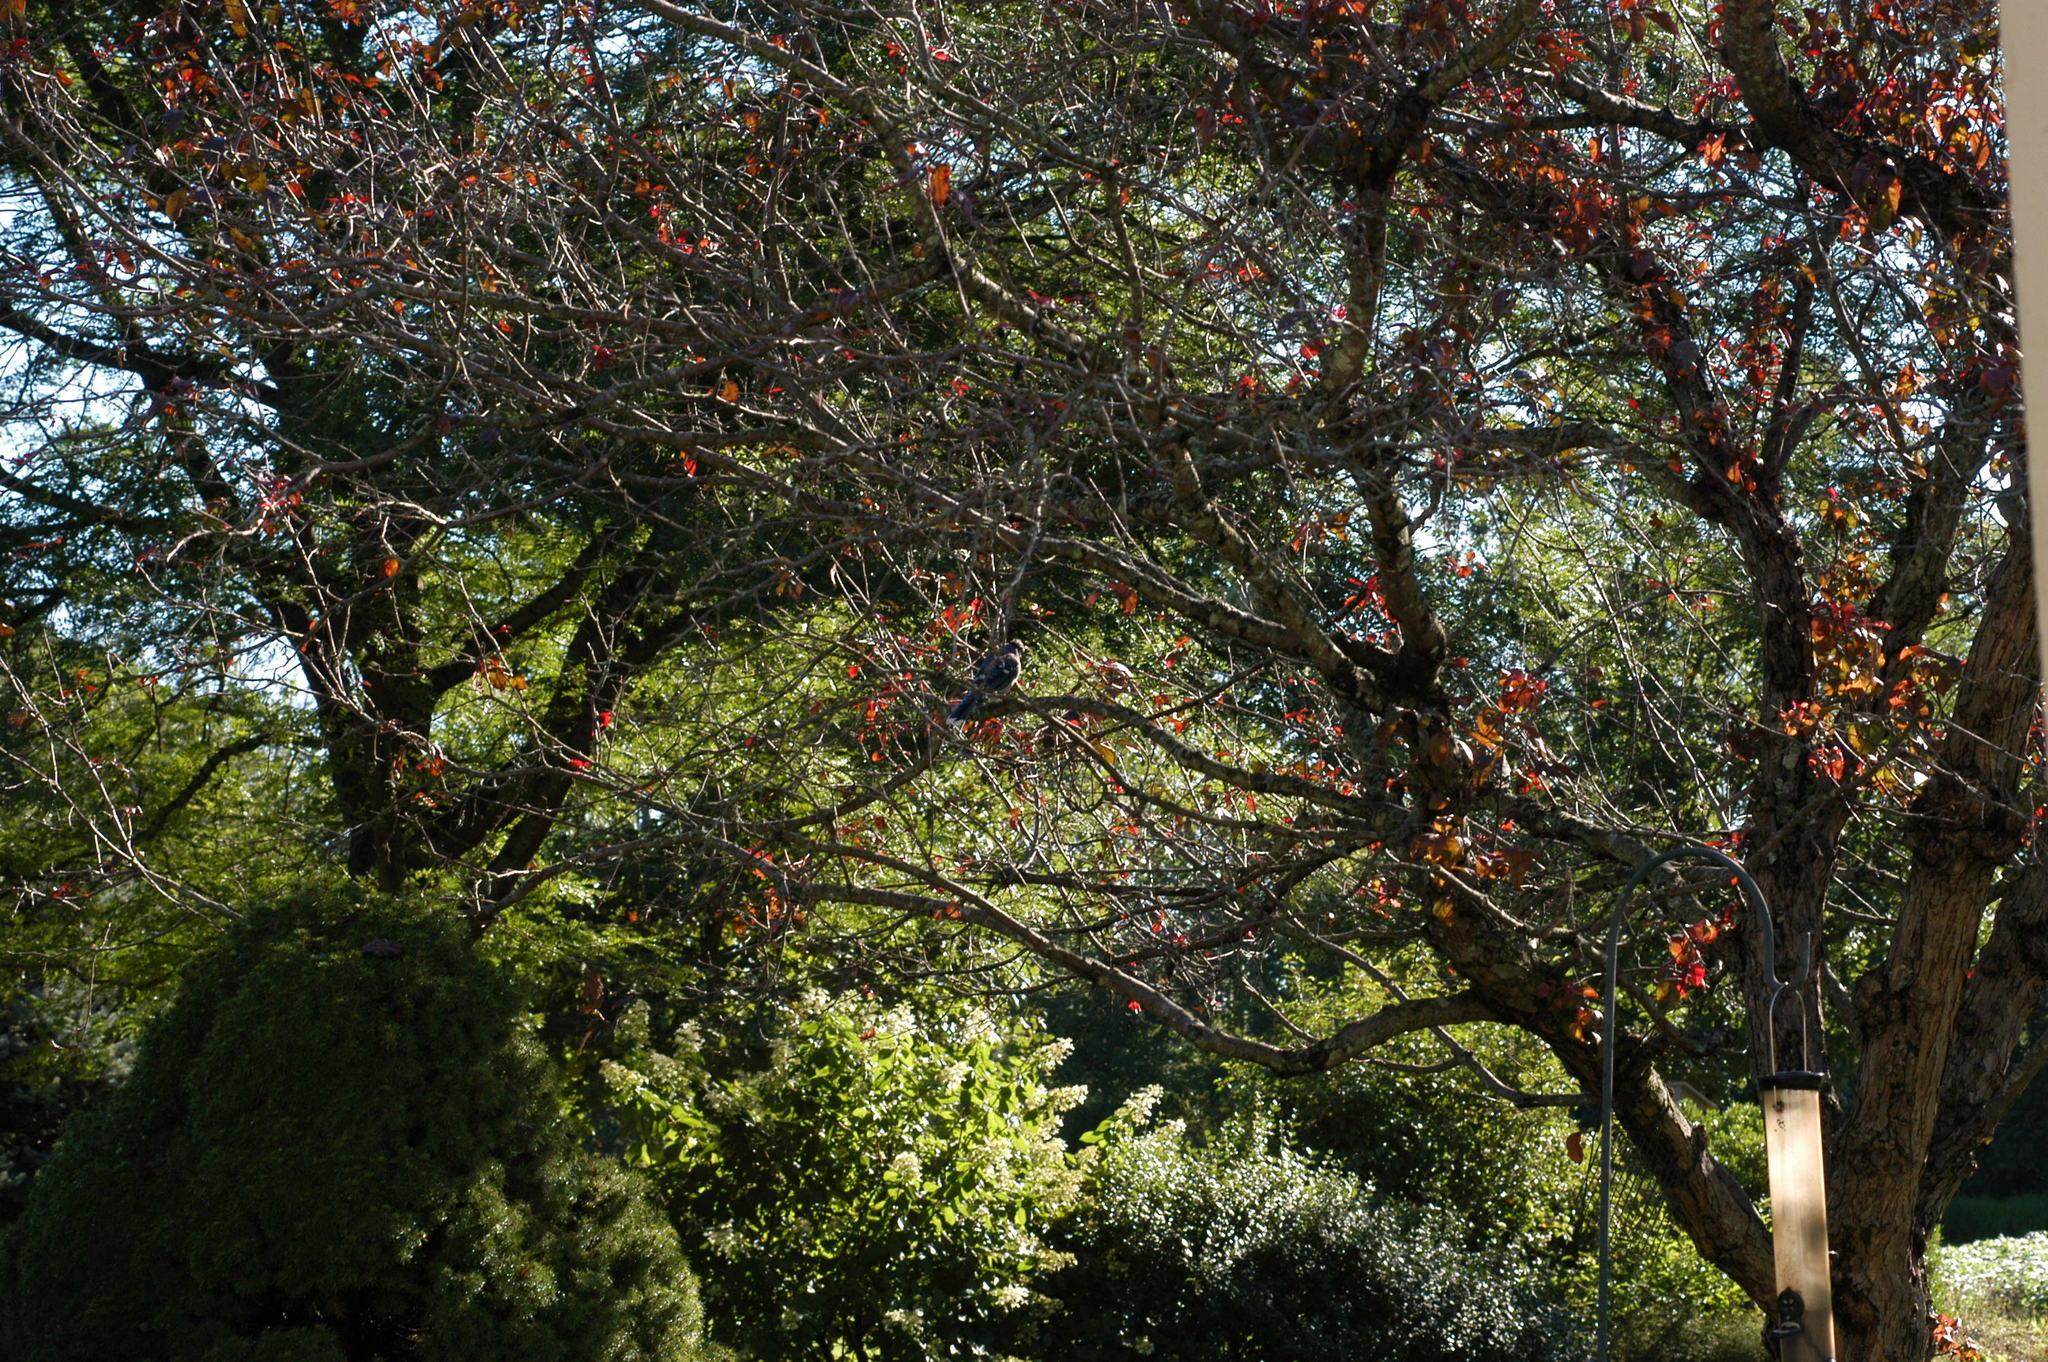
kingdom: Animalia
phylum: Chordata
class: Aves
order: Passeriformes
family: Corvidae
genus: Cyanocitta
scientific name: Cyanocitta cristata
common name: Blue jay
